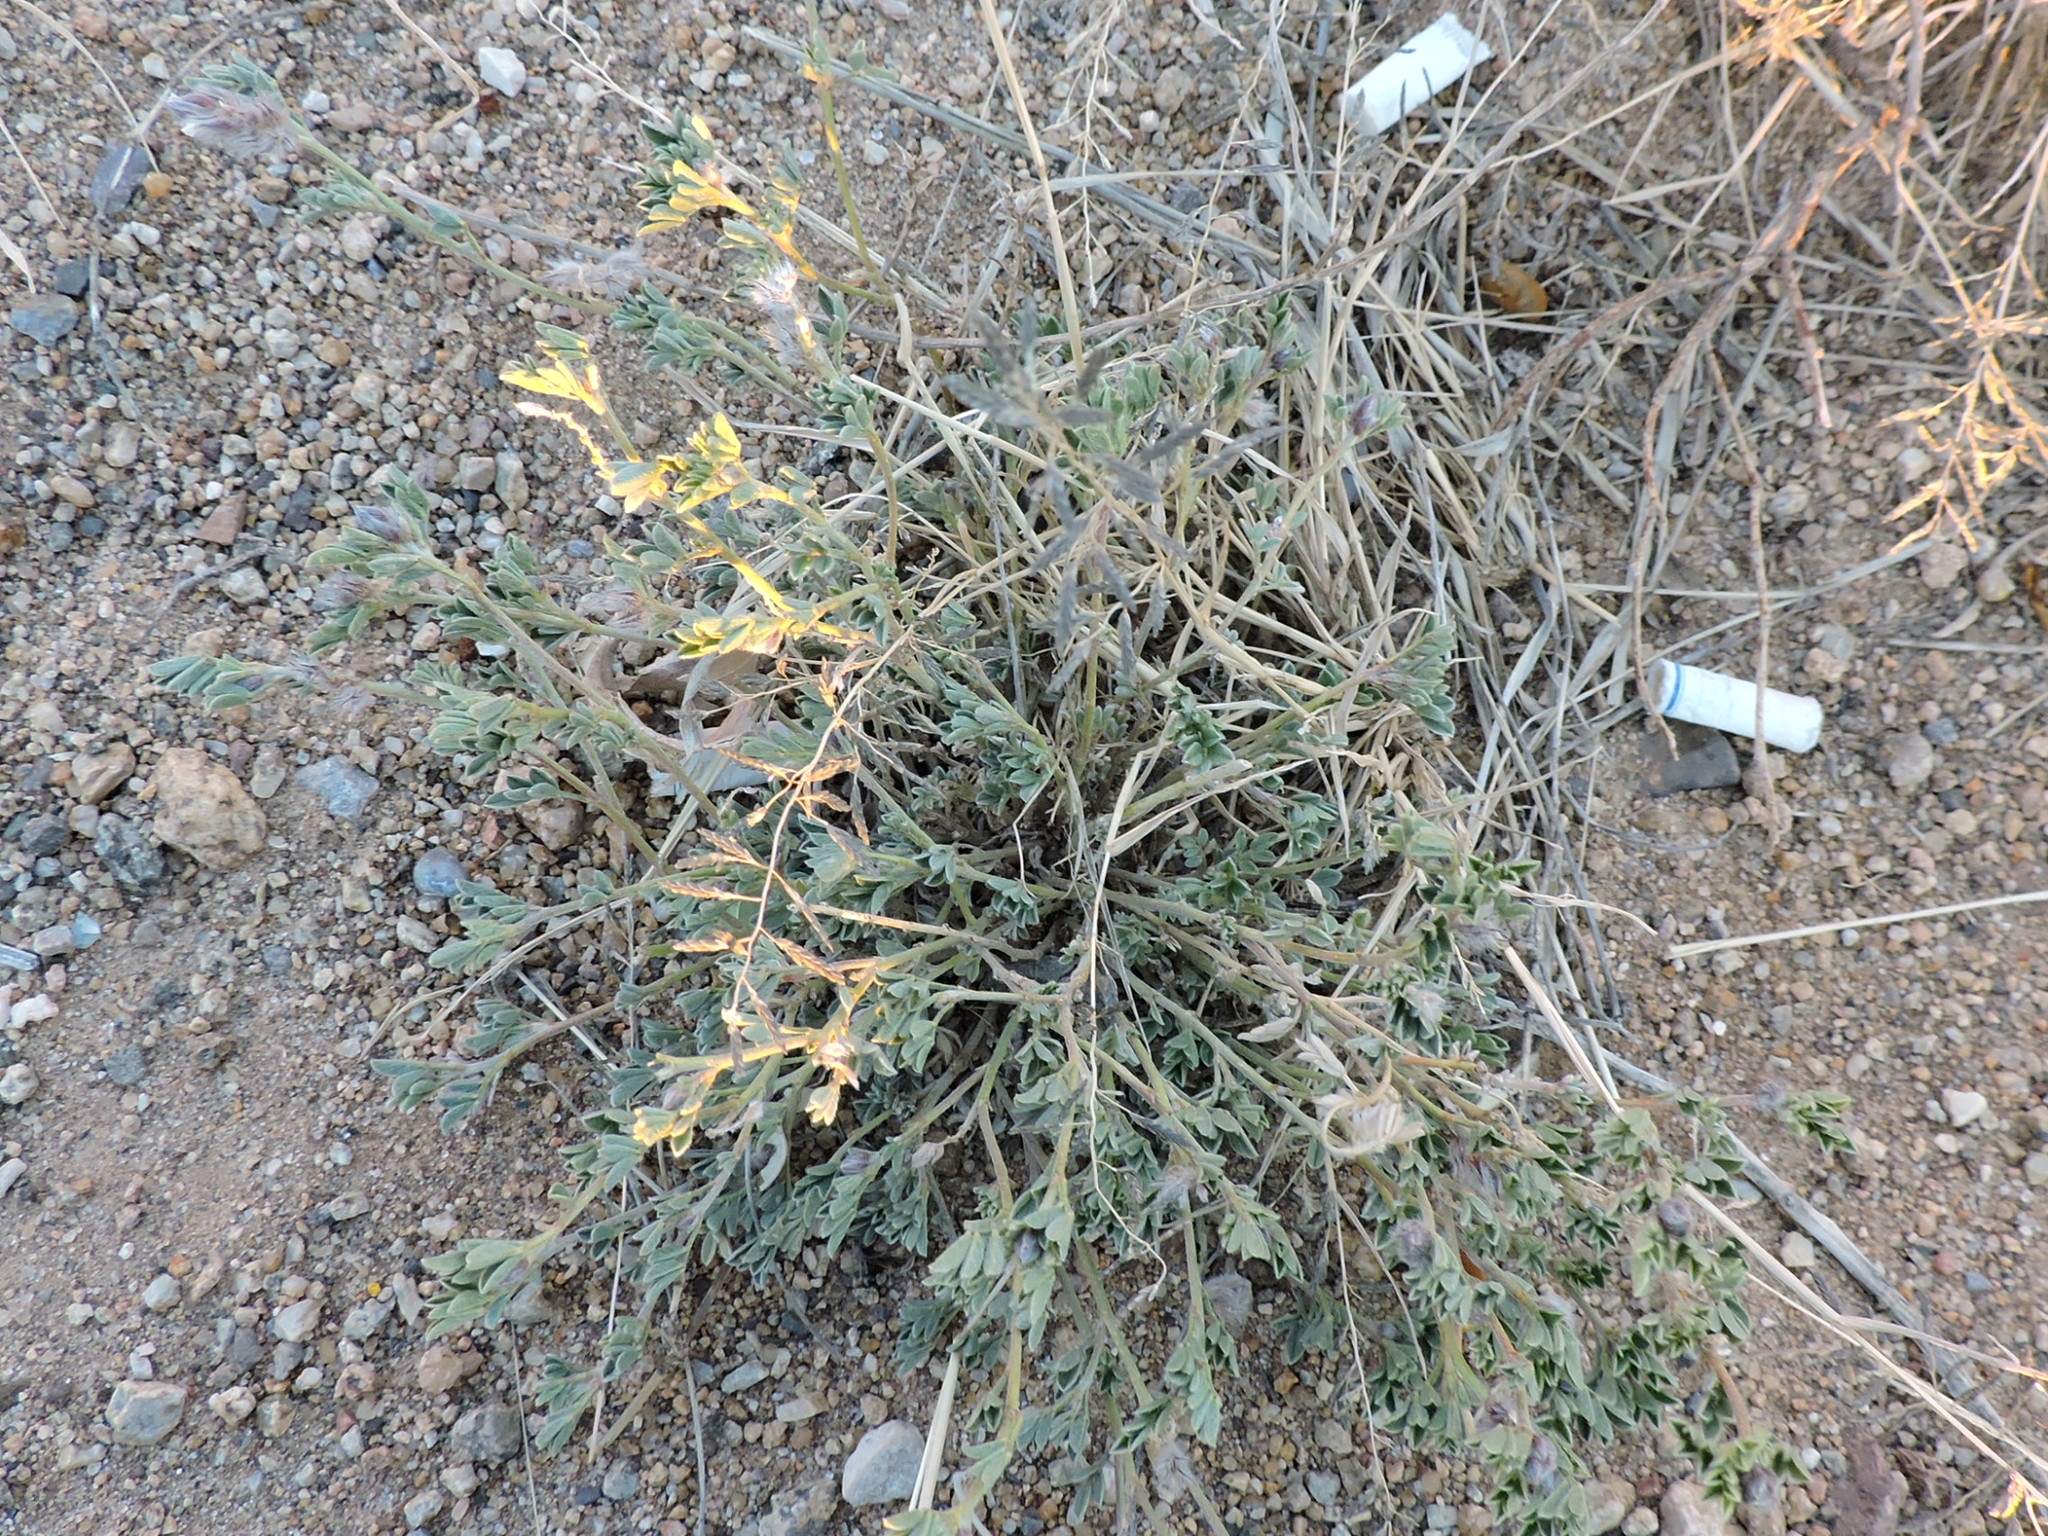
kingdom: Plantae
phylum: Tracheophyta
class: Magnoliopsida
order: Fabales
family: Fabaceae
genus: Dalea
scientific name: Dalea wrightii
